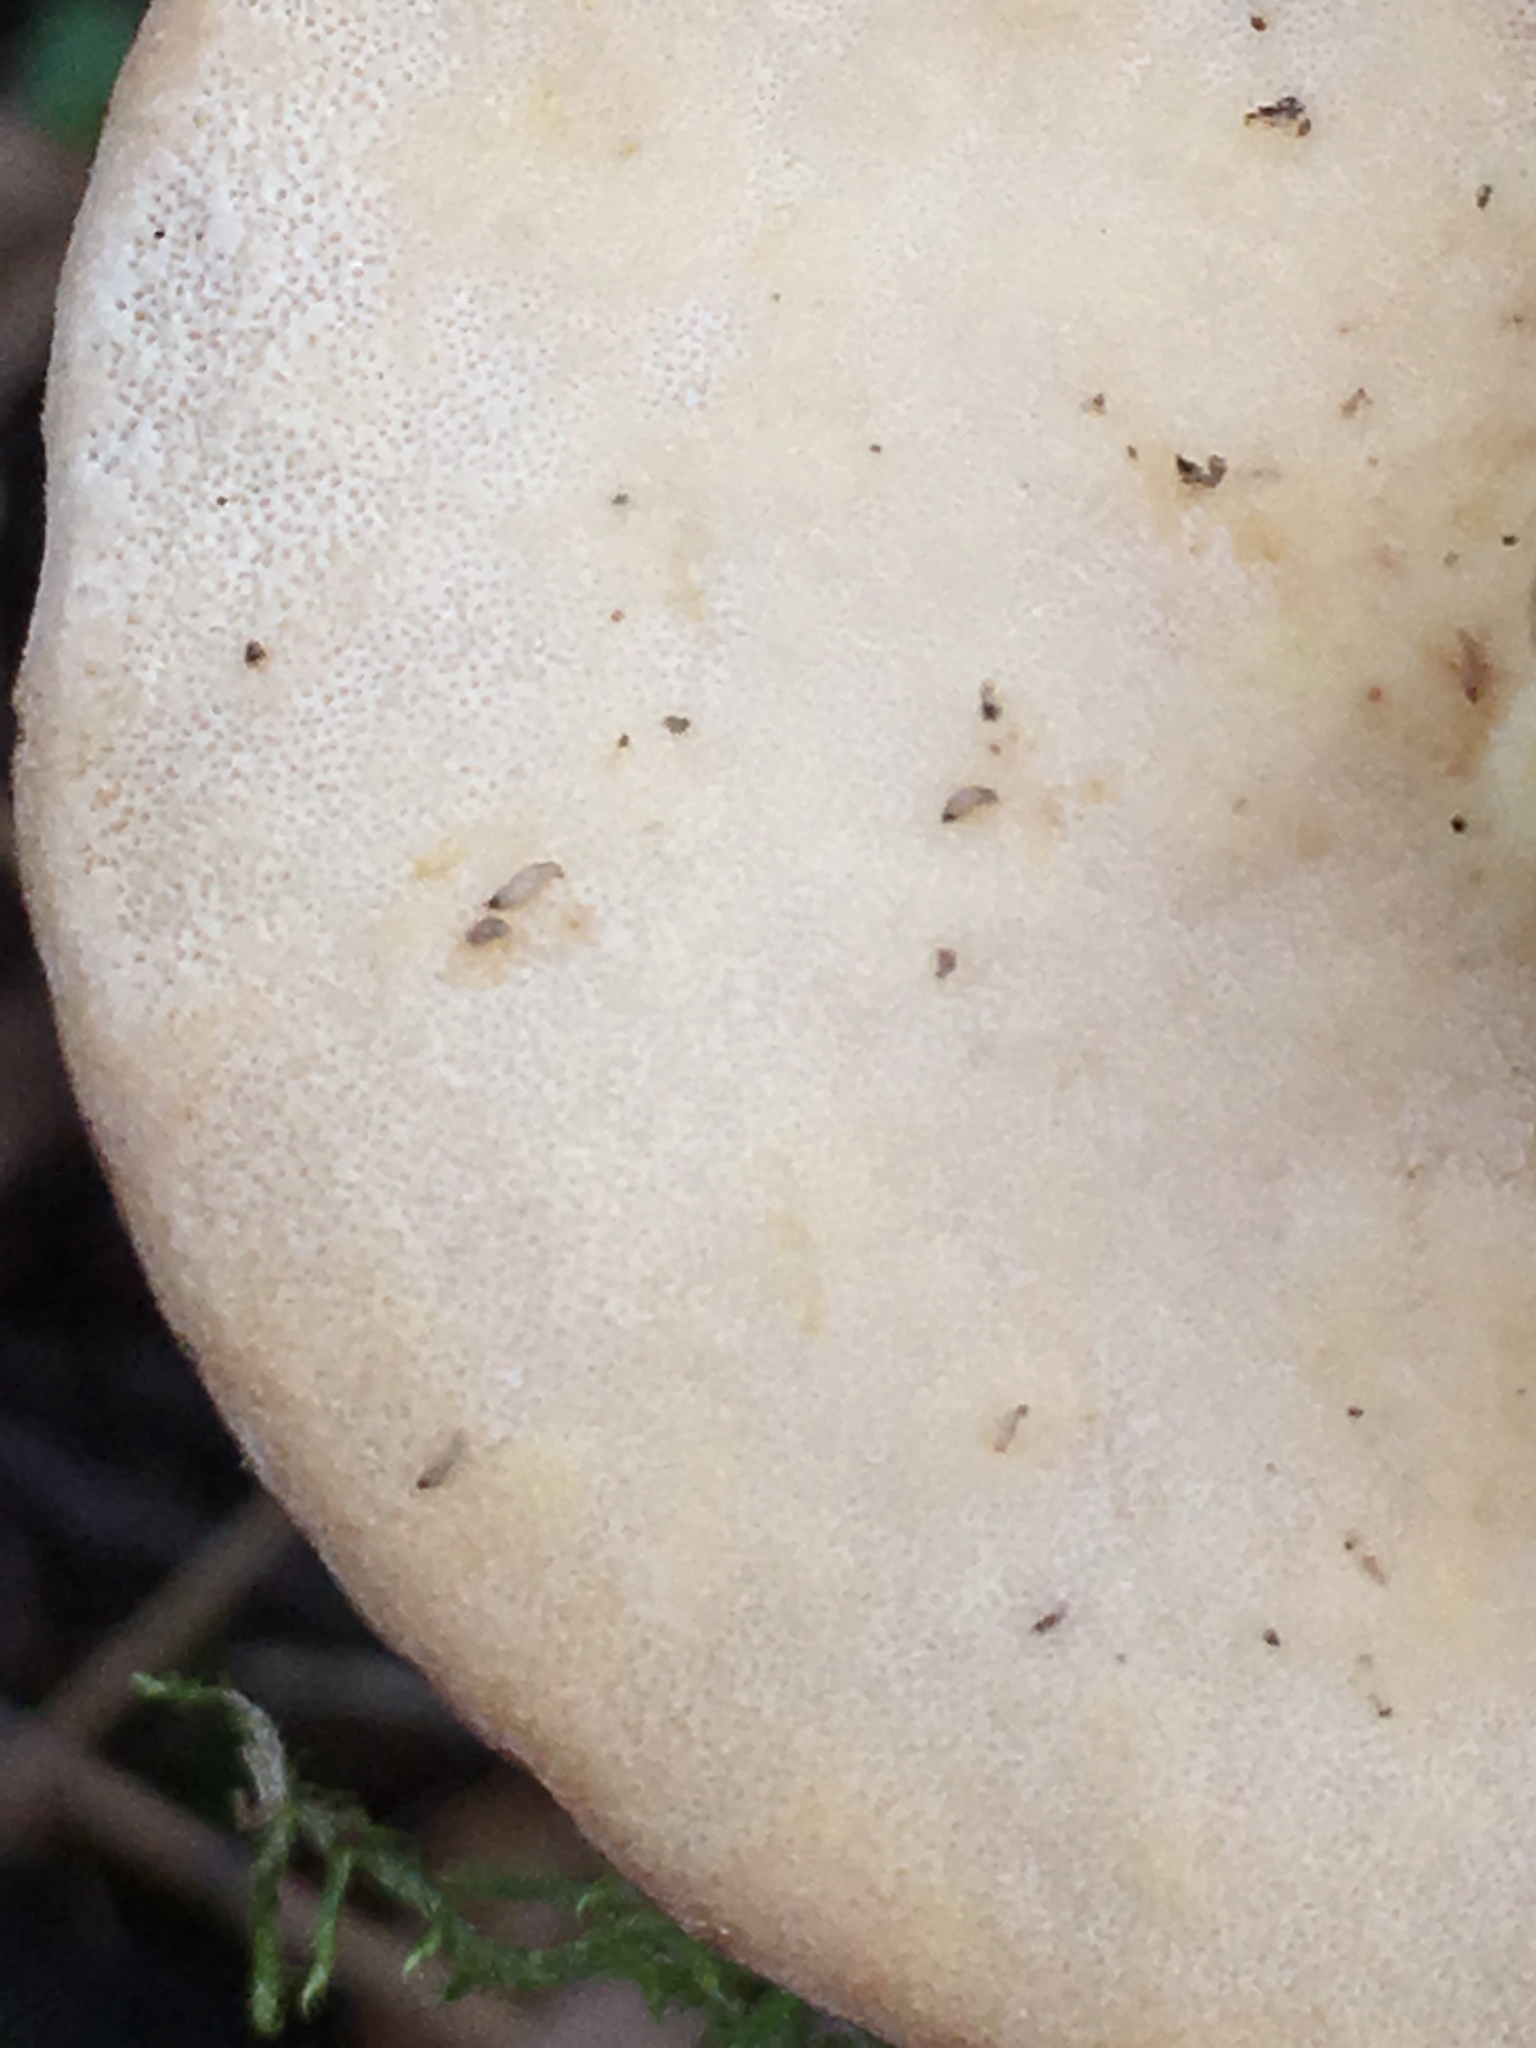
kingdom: Fungi
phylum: Basidiomycota
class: Agaricomycetes
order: Polyporales
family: Polyporaceae
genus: Trametes
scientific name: Trametes versicolor
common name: Turkeytail
